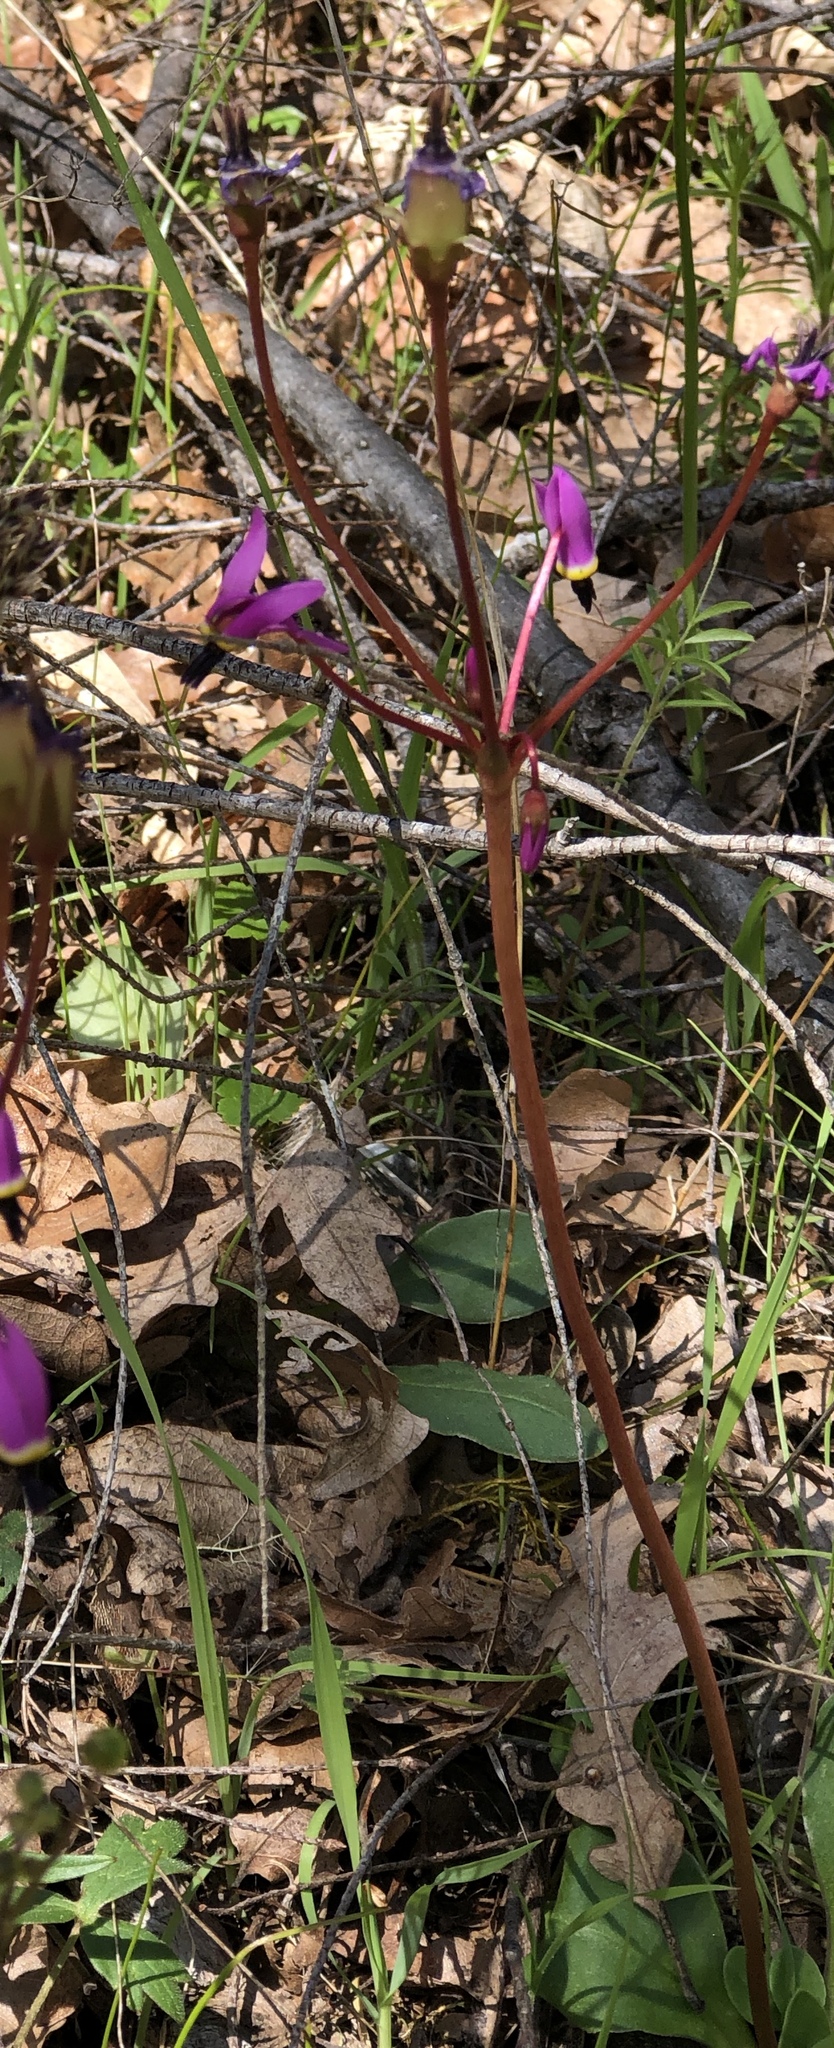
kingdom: Plantae
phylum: Tracheophyta
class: Magnoliopsida
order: Ericales
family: Primulaceae
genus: Dodecatheon
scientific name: Dodecatheon hendersonii
